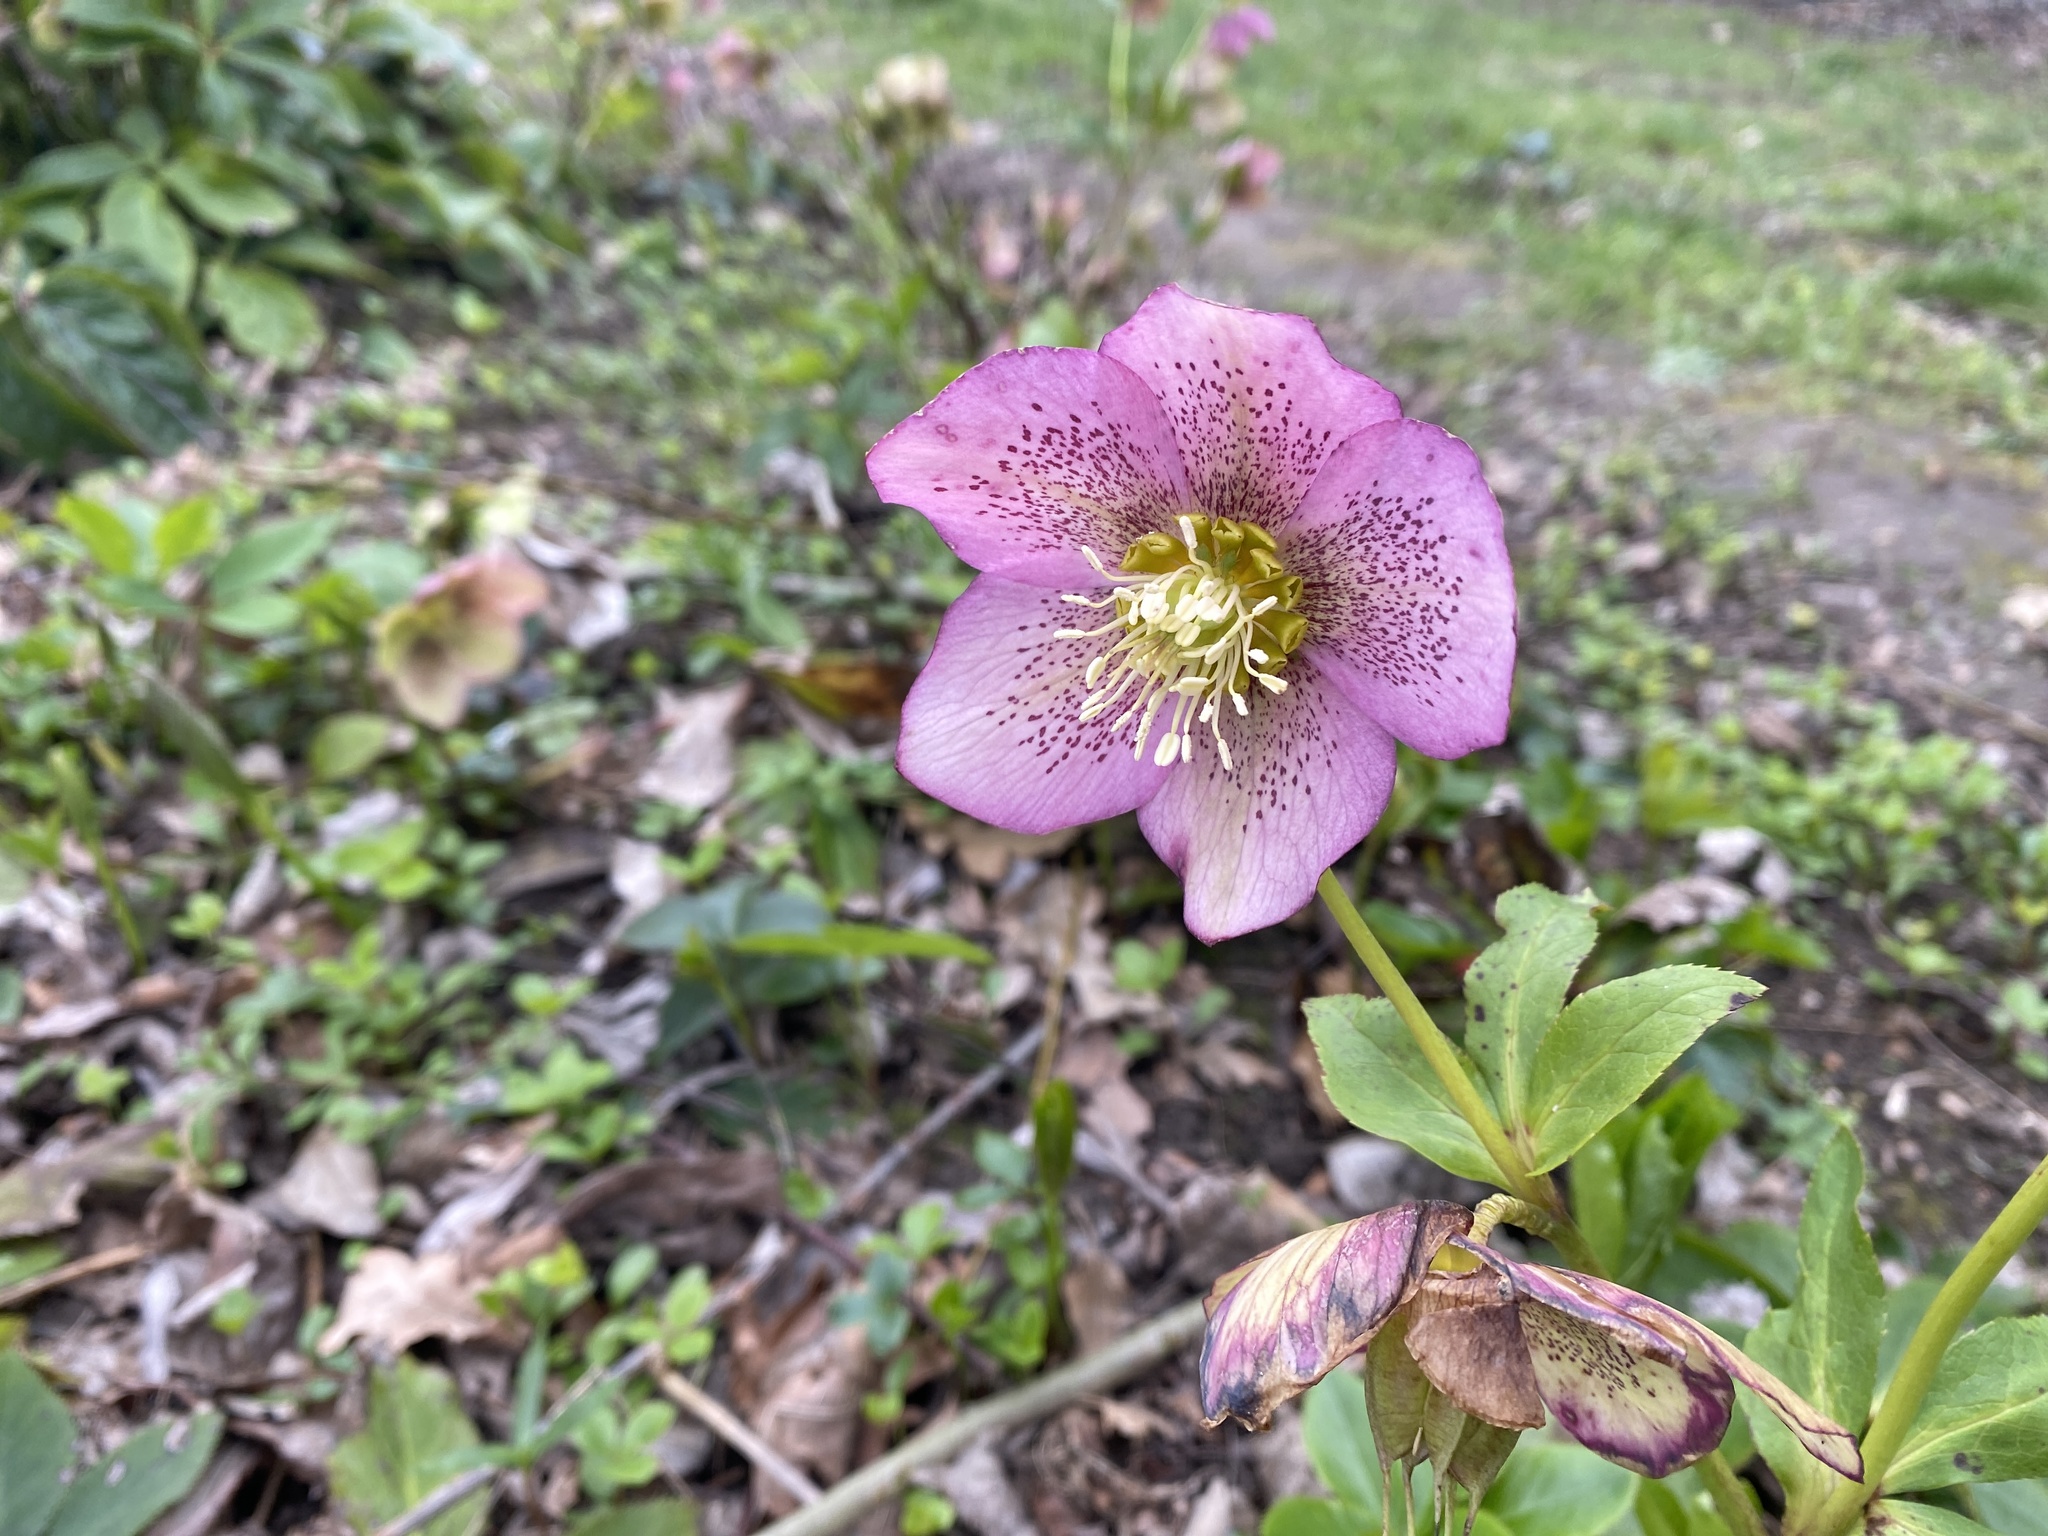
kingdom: Plantae
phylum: Tracheophyta
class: Magnoliopsida
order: Ranunculales
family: Ranunculaceae
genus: Helleborus
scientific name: Helleborus orientalis
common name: Lenten-rose
